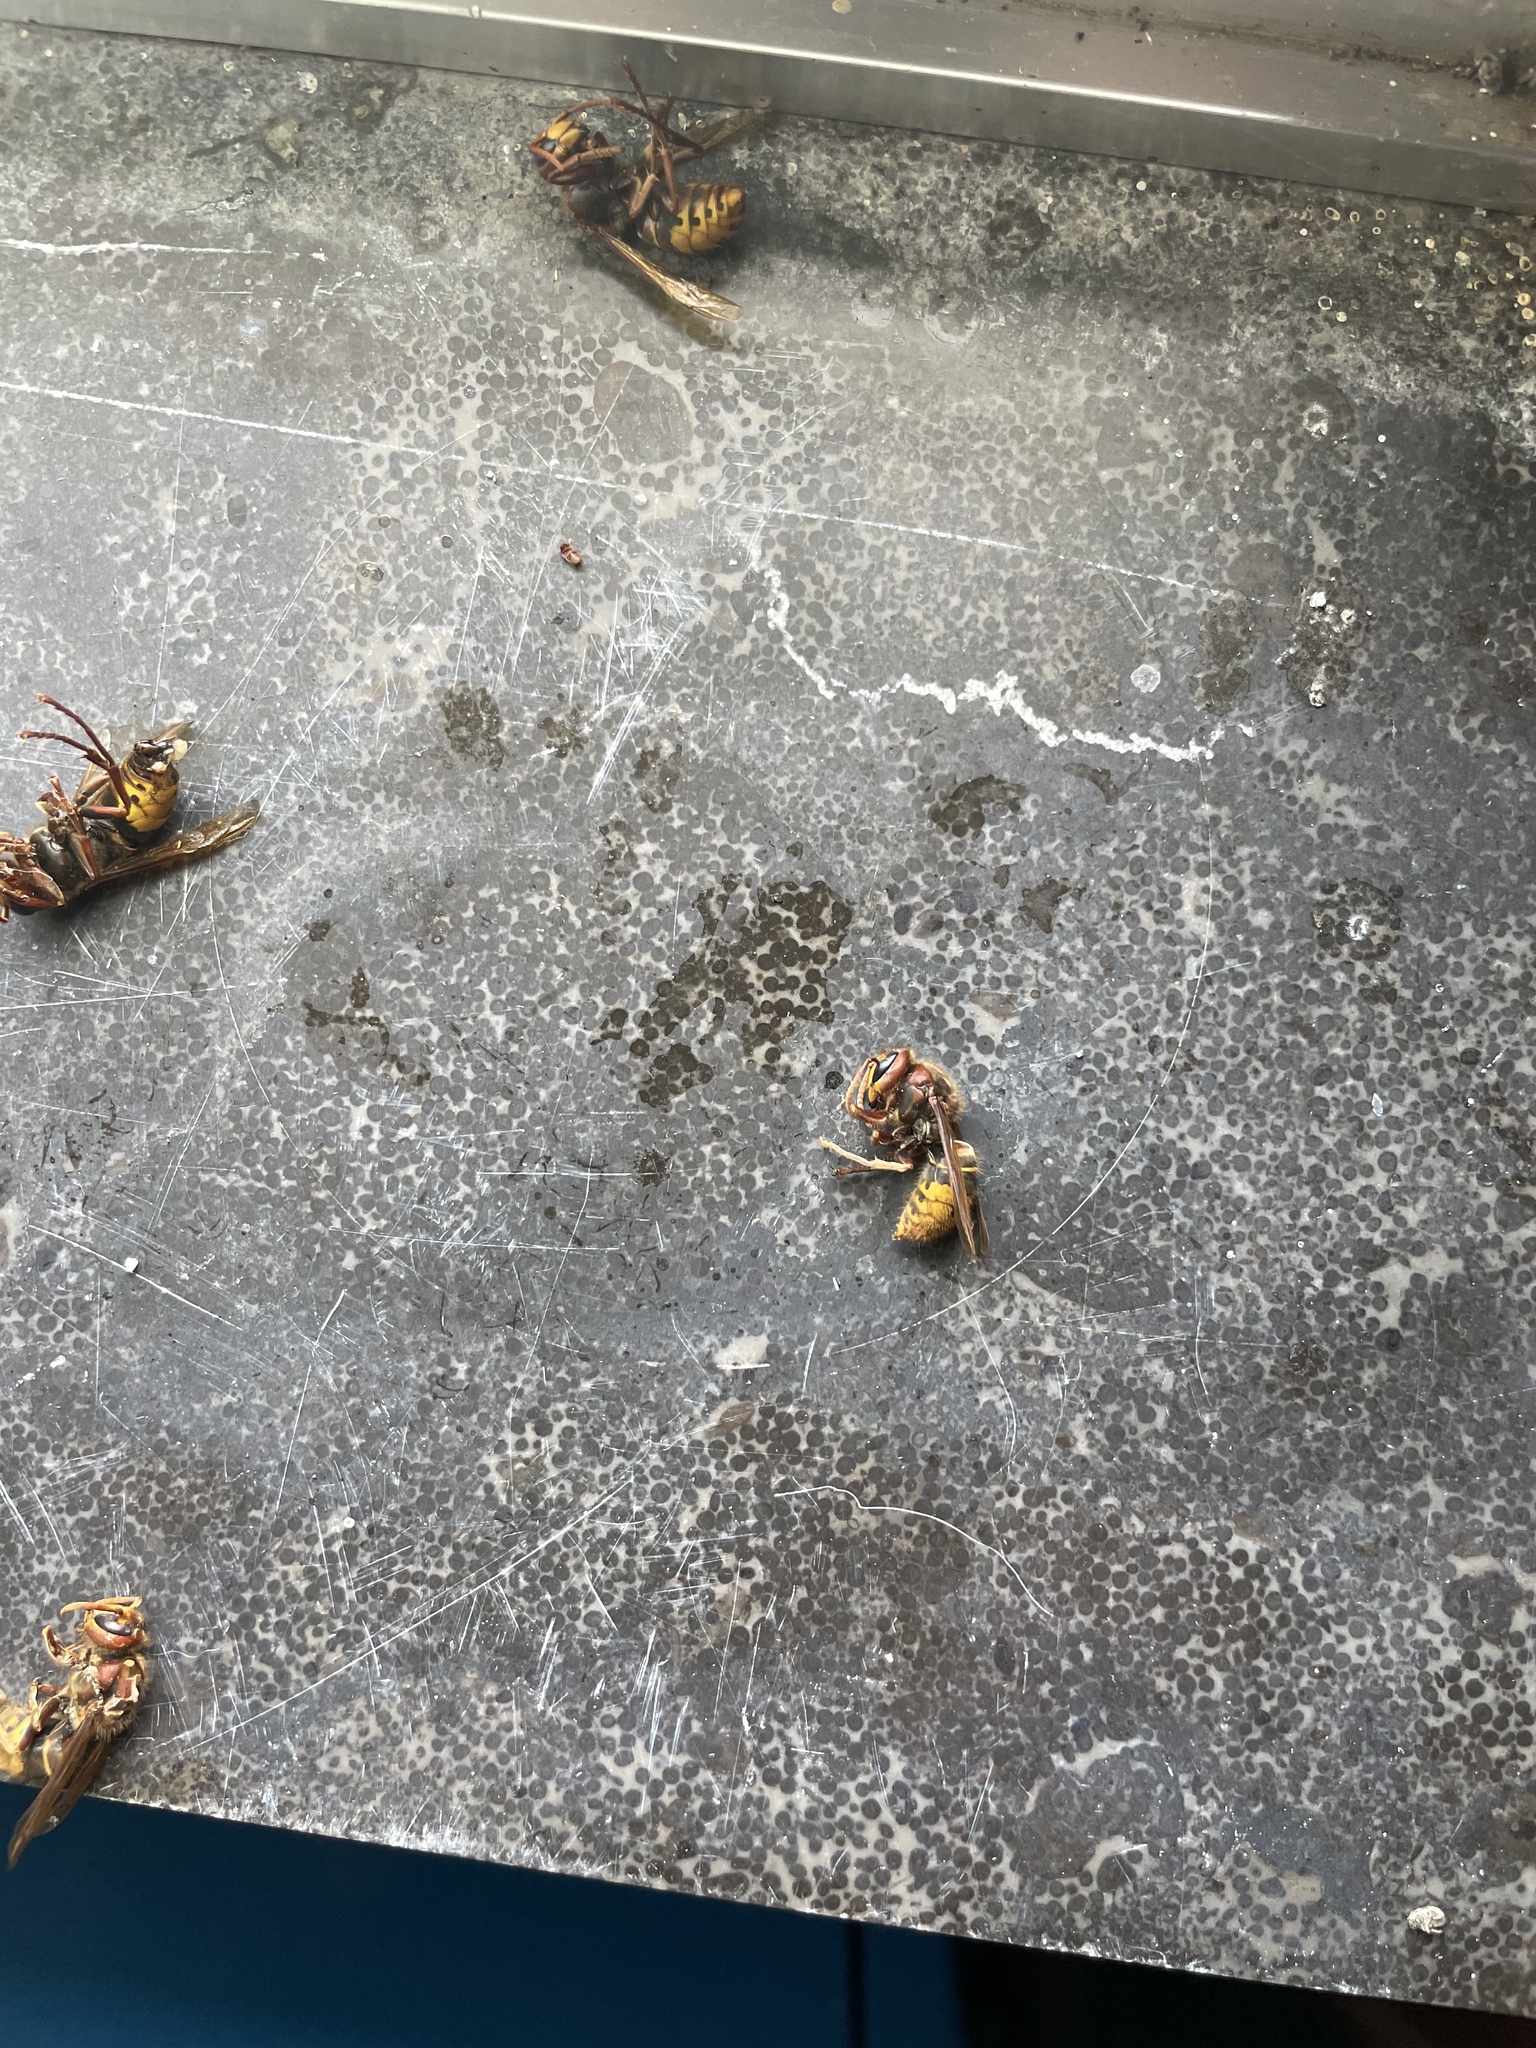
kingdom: Animalia
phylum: Arthropoda
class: Insecta
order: Hymenoptera
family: Vespidae
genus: Vespa
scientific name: Vespa crabro
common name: Hornet
